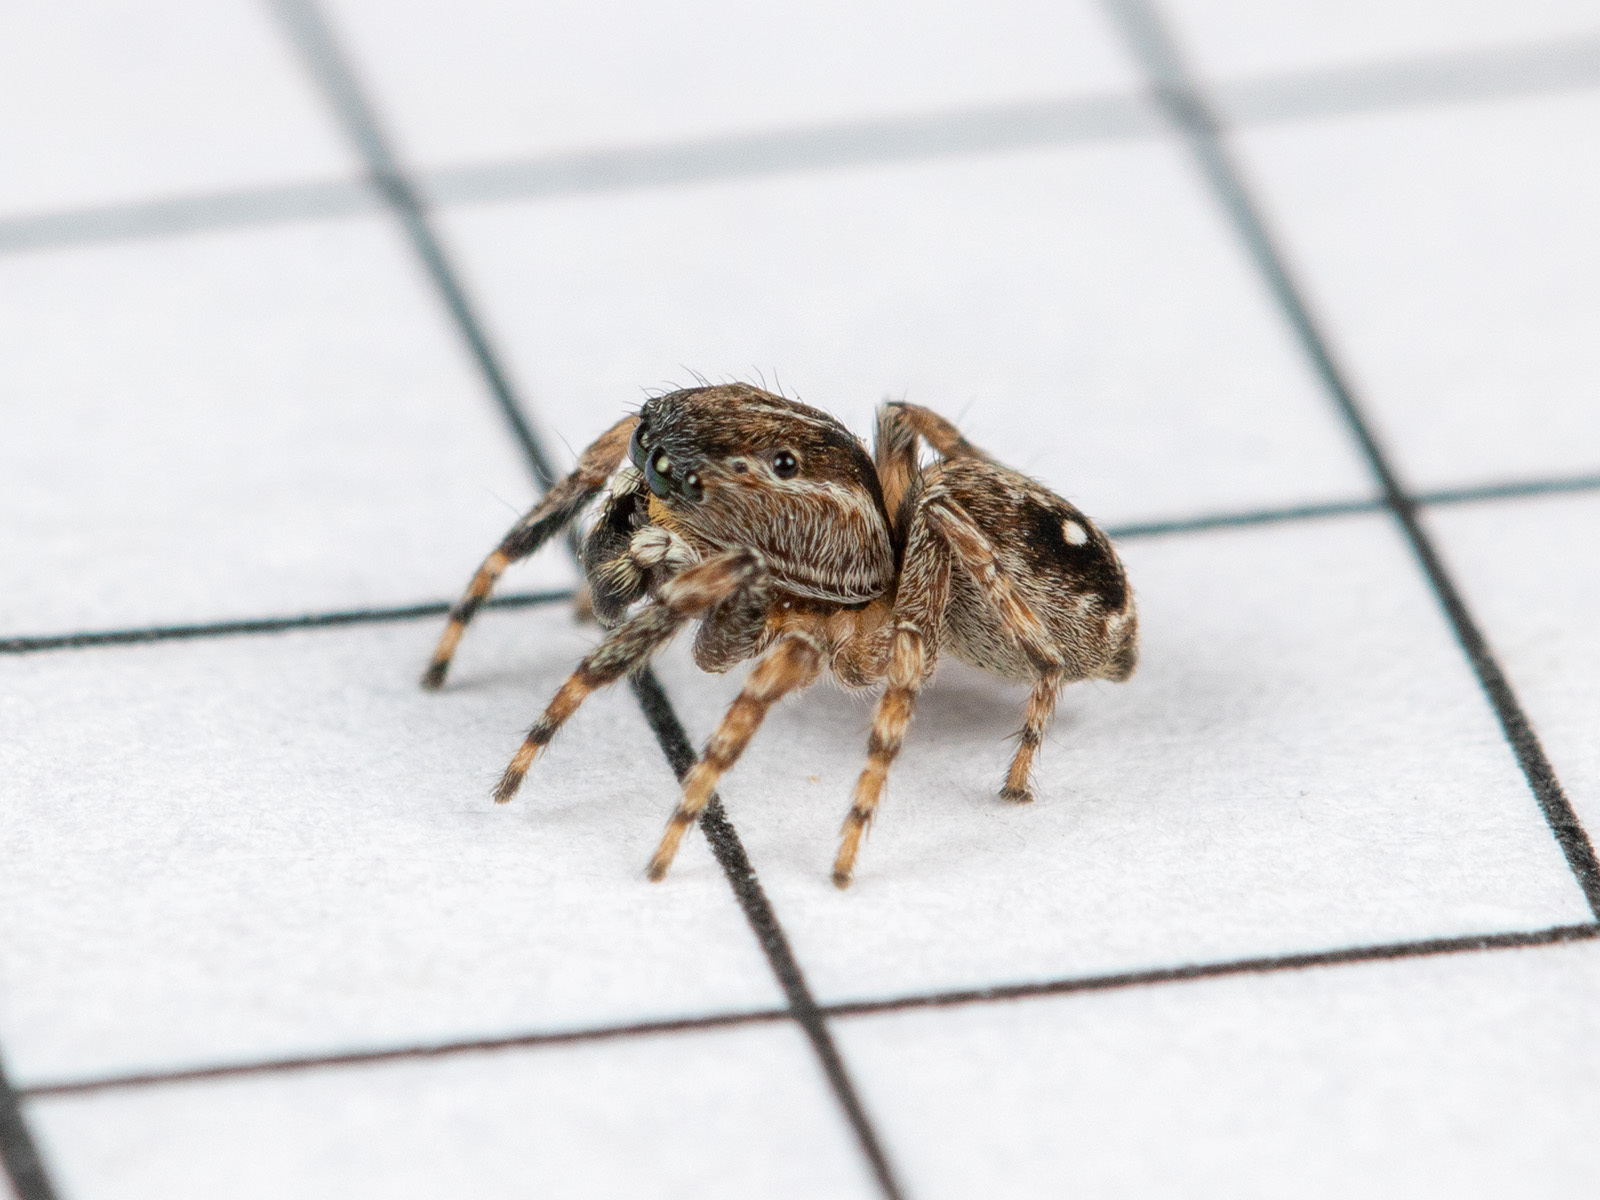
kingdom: Animalia
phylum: Arthropoda
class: Arachnida
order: Araneae
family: Salticidae
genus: Attulus
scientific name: Attulus zimmermanni
